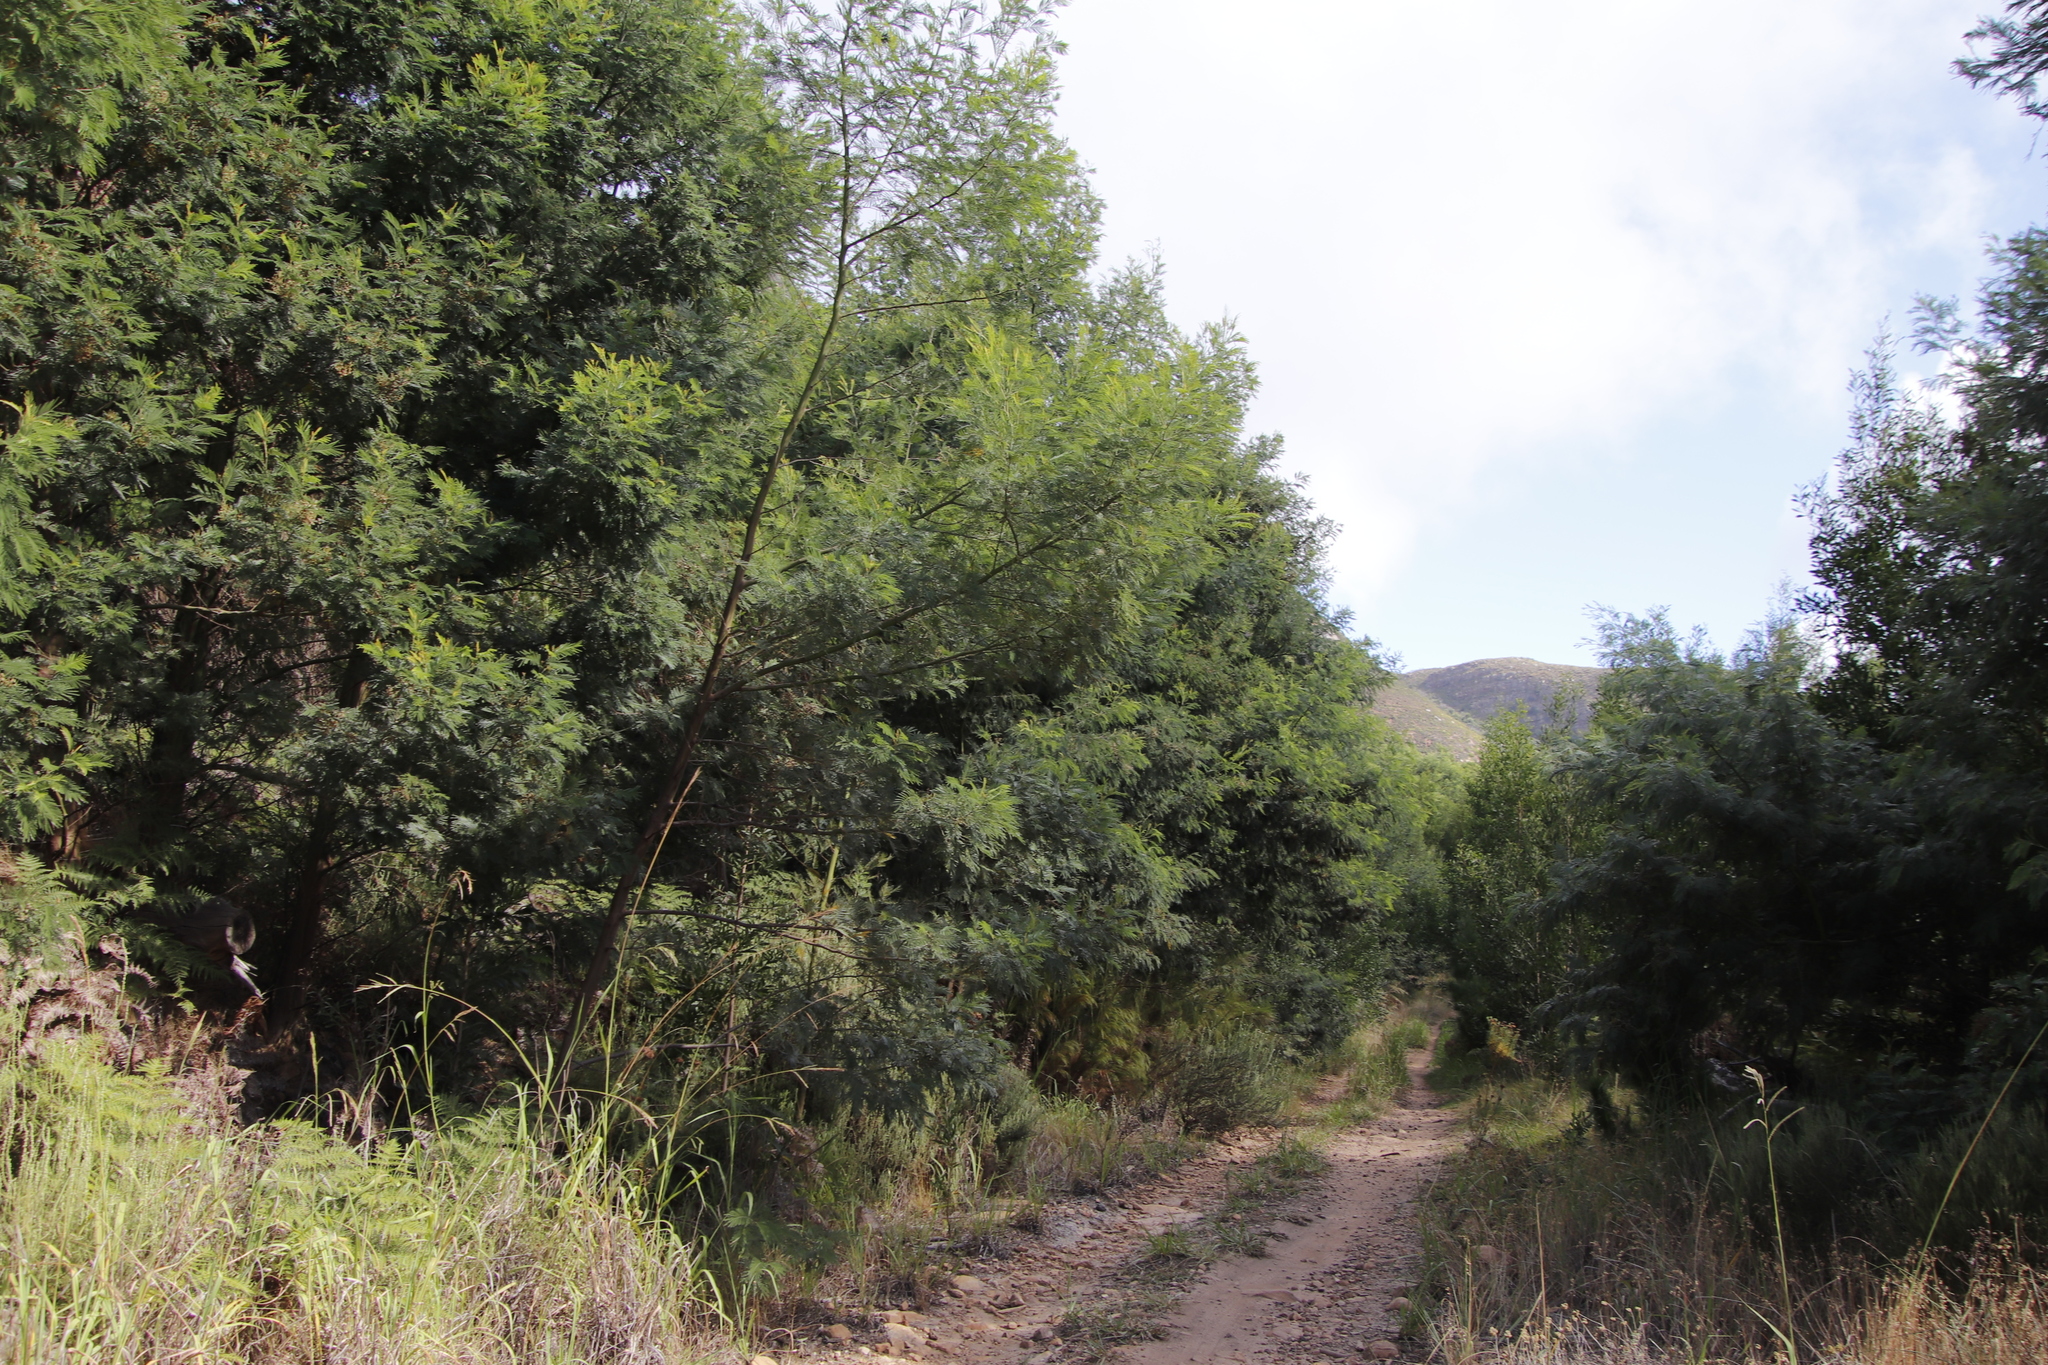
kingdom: Plantae
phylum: Tracheophyta
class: Magnoliopsida
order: Fabales
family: Fabaceae
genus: Acacia
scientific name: Acacia mearnsii
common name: Black wattle
